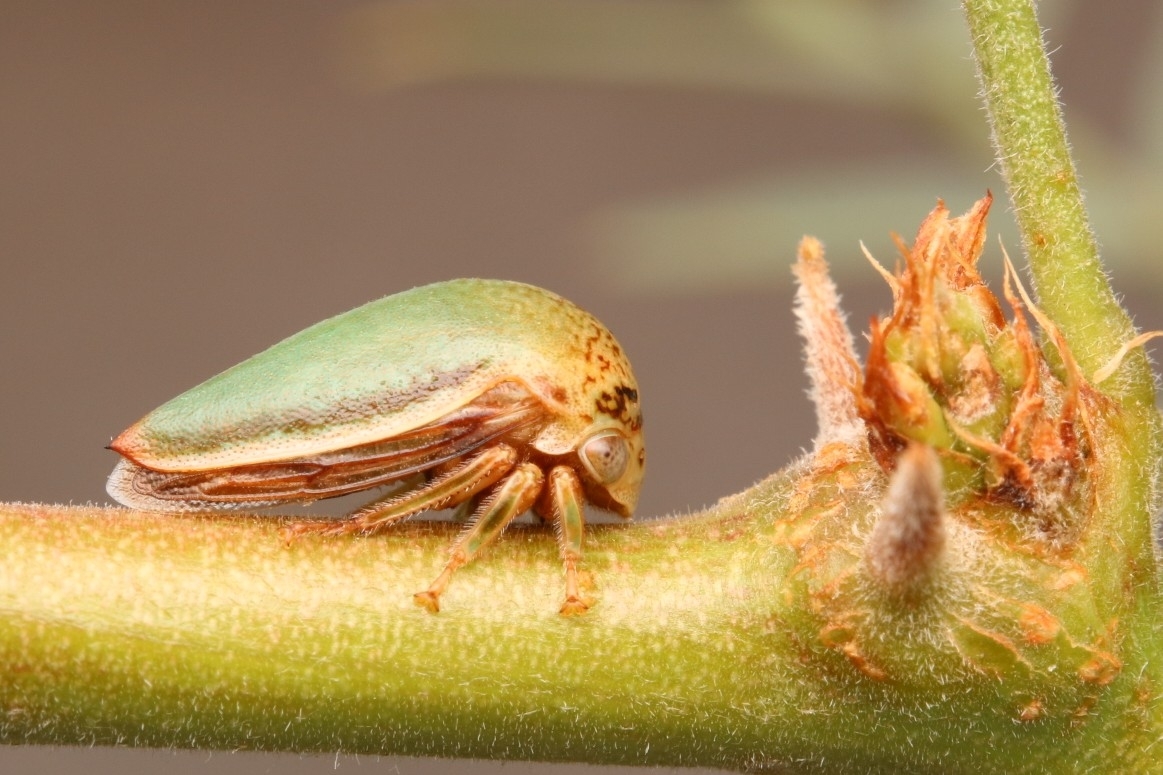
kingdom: Animalia
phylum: Arthropoda
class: Insecta
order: Hemiptera
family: Membracidae
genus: Stictopelta
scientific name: Stictopelta marmorata
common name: Treehopper
